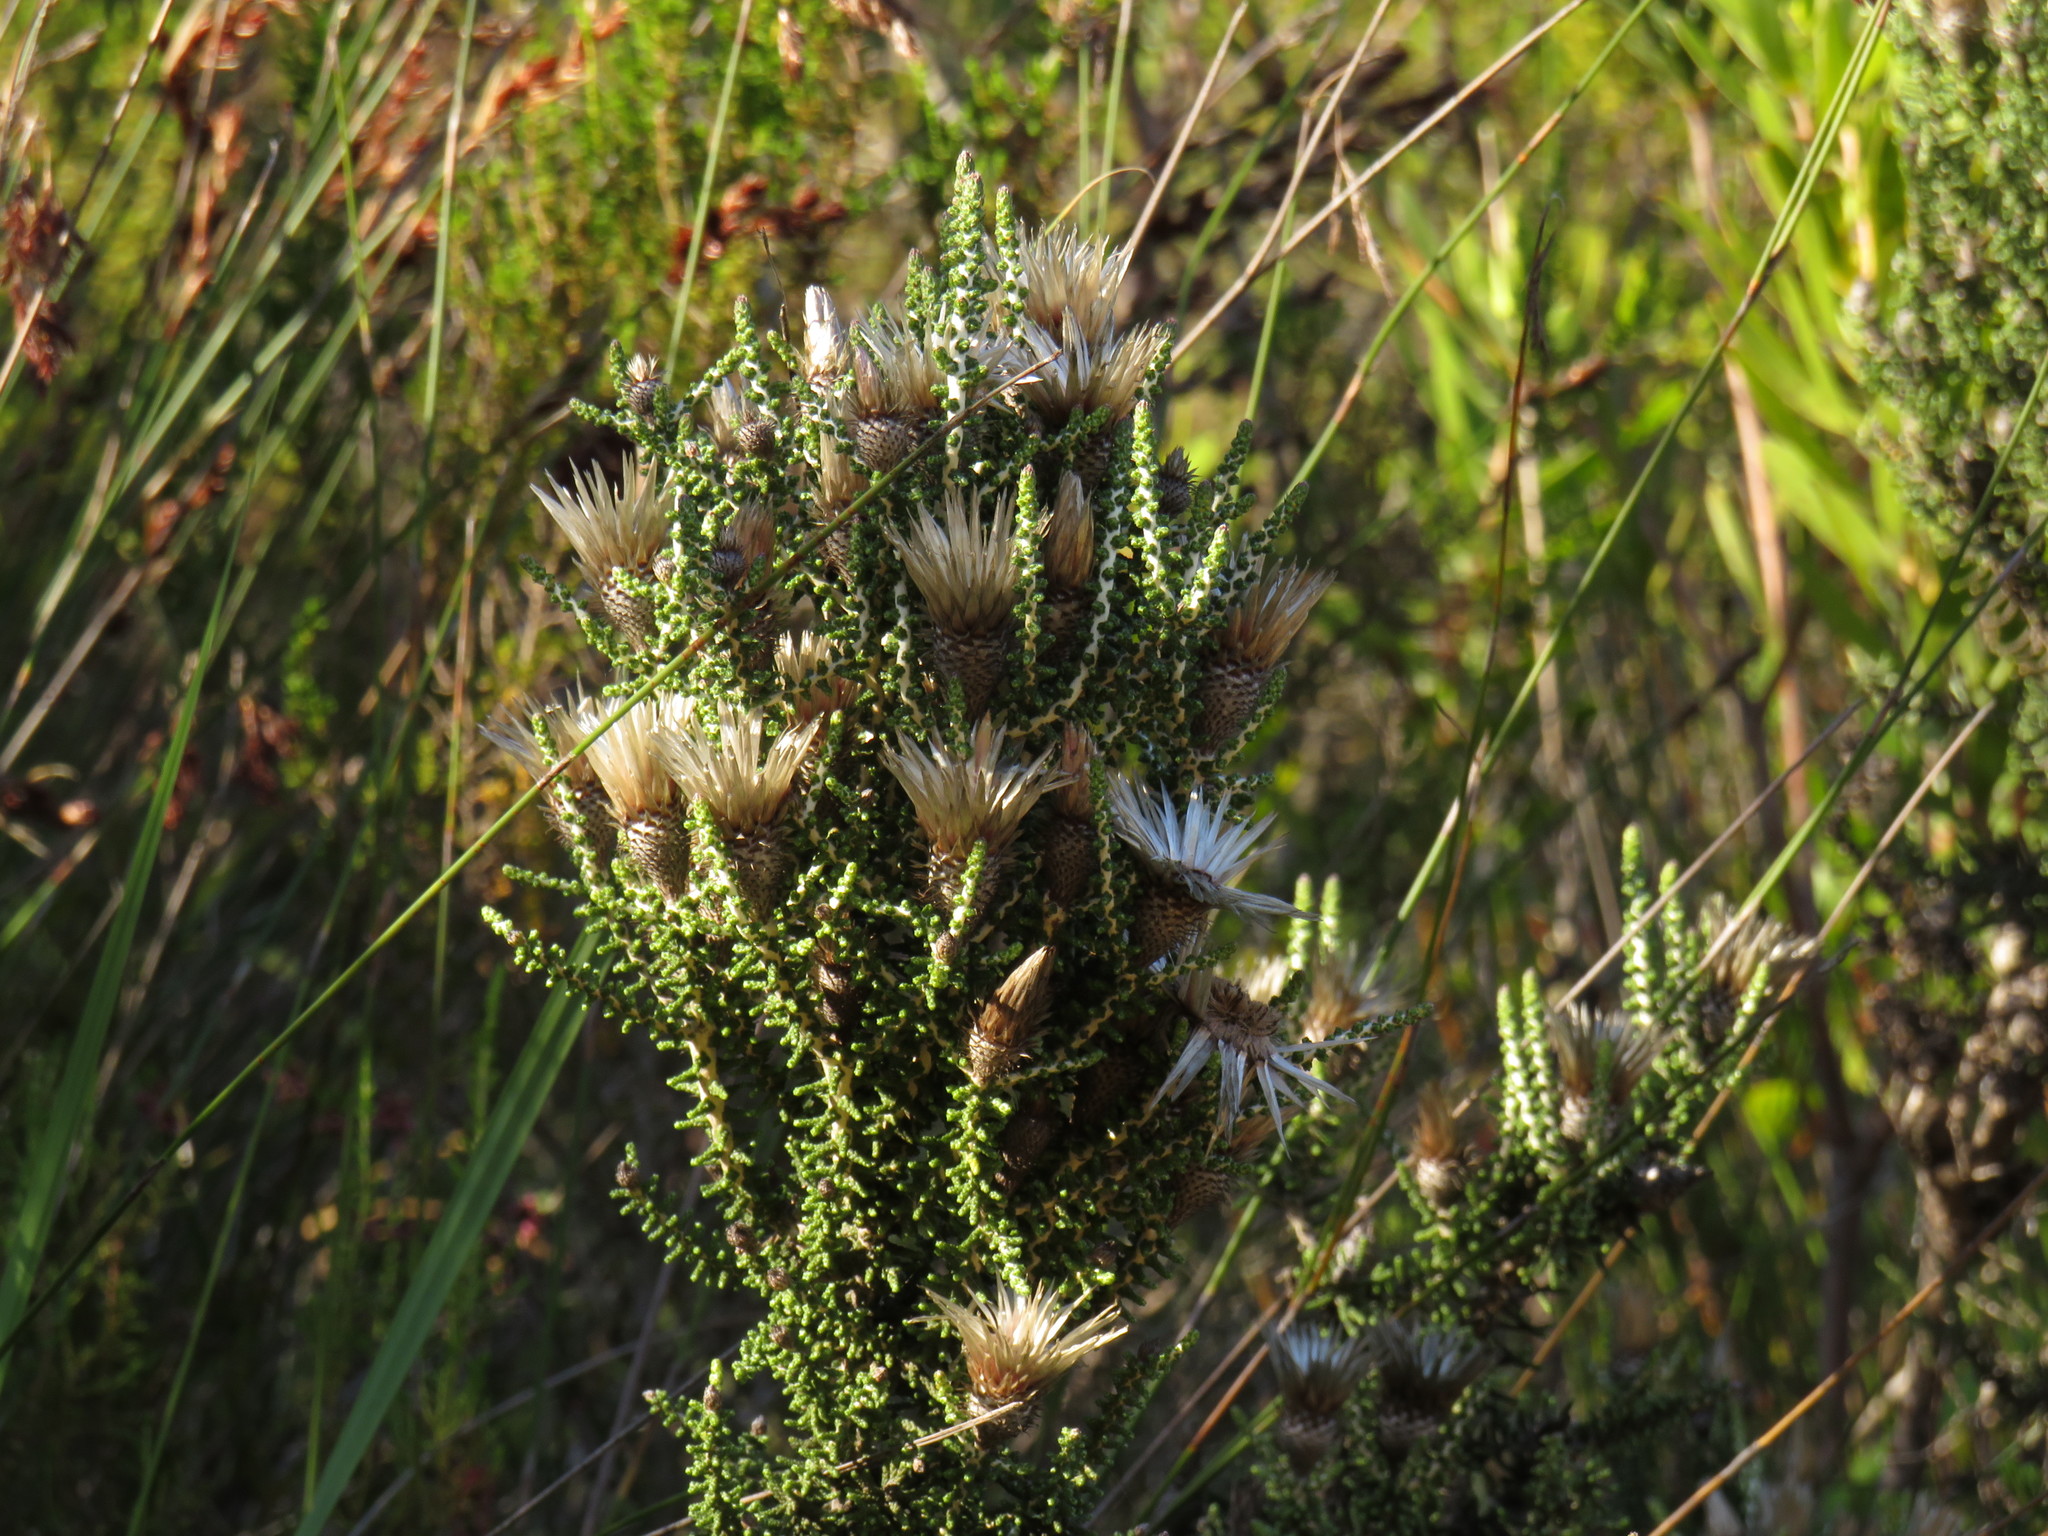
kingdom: Plantae
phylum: Tracheophyta
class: Magnoliopsida
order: Asterales
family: Asteraceae
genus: Phaenocoma
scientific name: Phaenocoma prolifera
